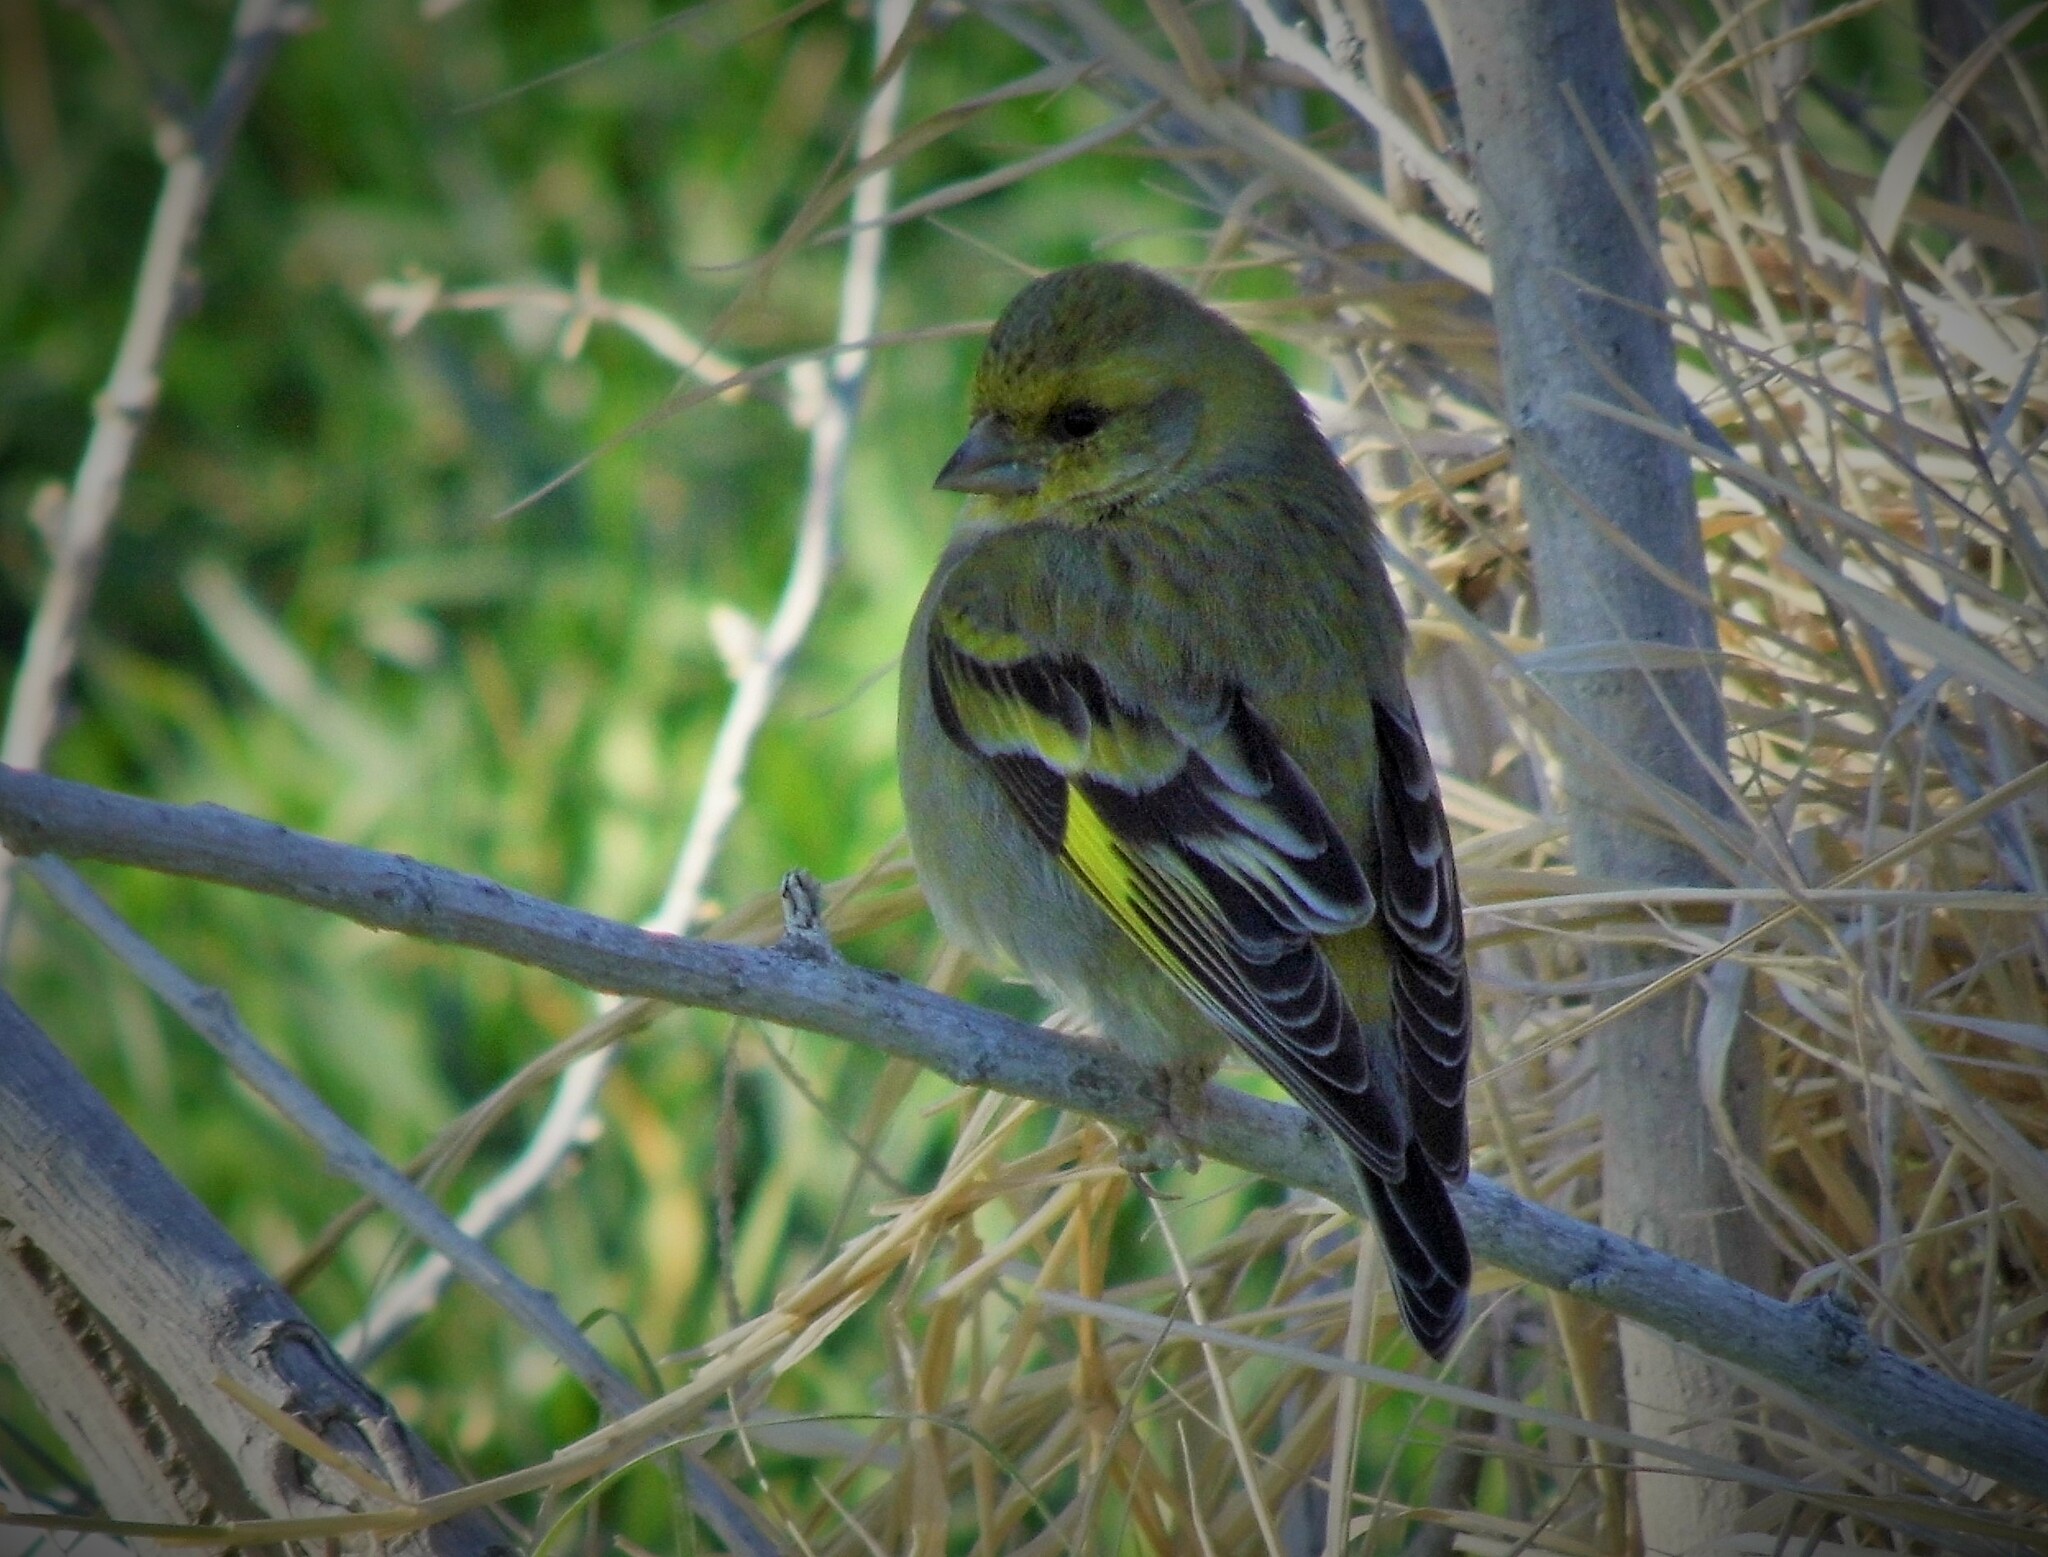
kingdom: Animalia
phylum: Chordata
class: Aves
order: Passeriformes
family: Fringillidae
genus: Spinus
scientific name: Spinus barbatus
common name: Black-chinned siskin
